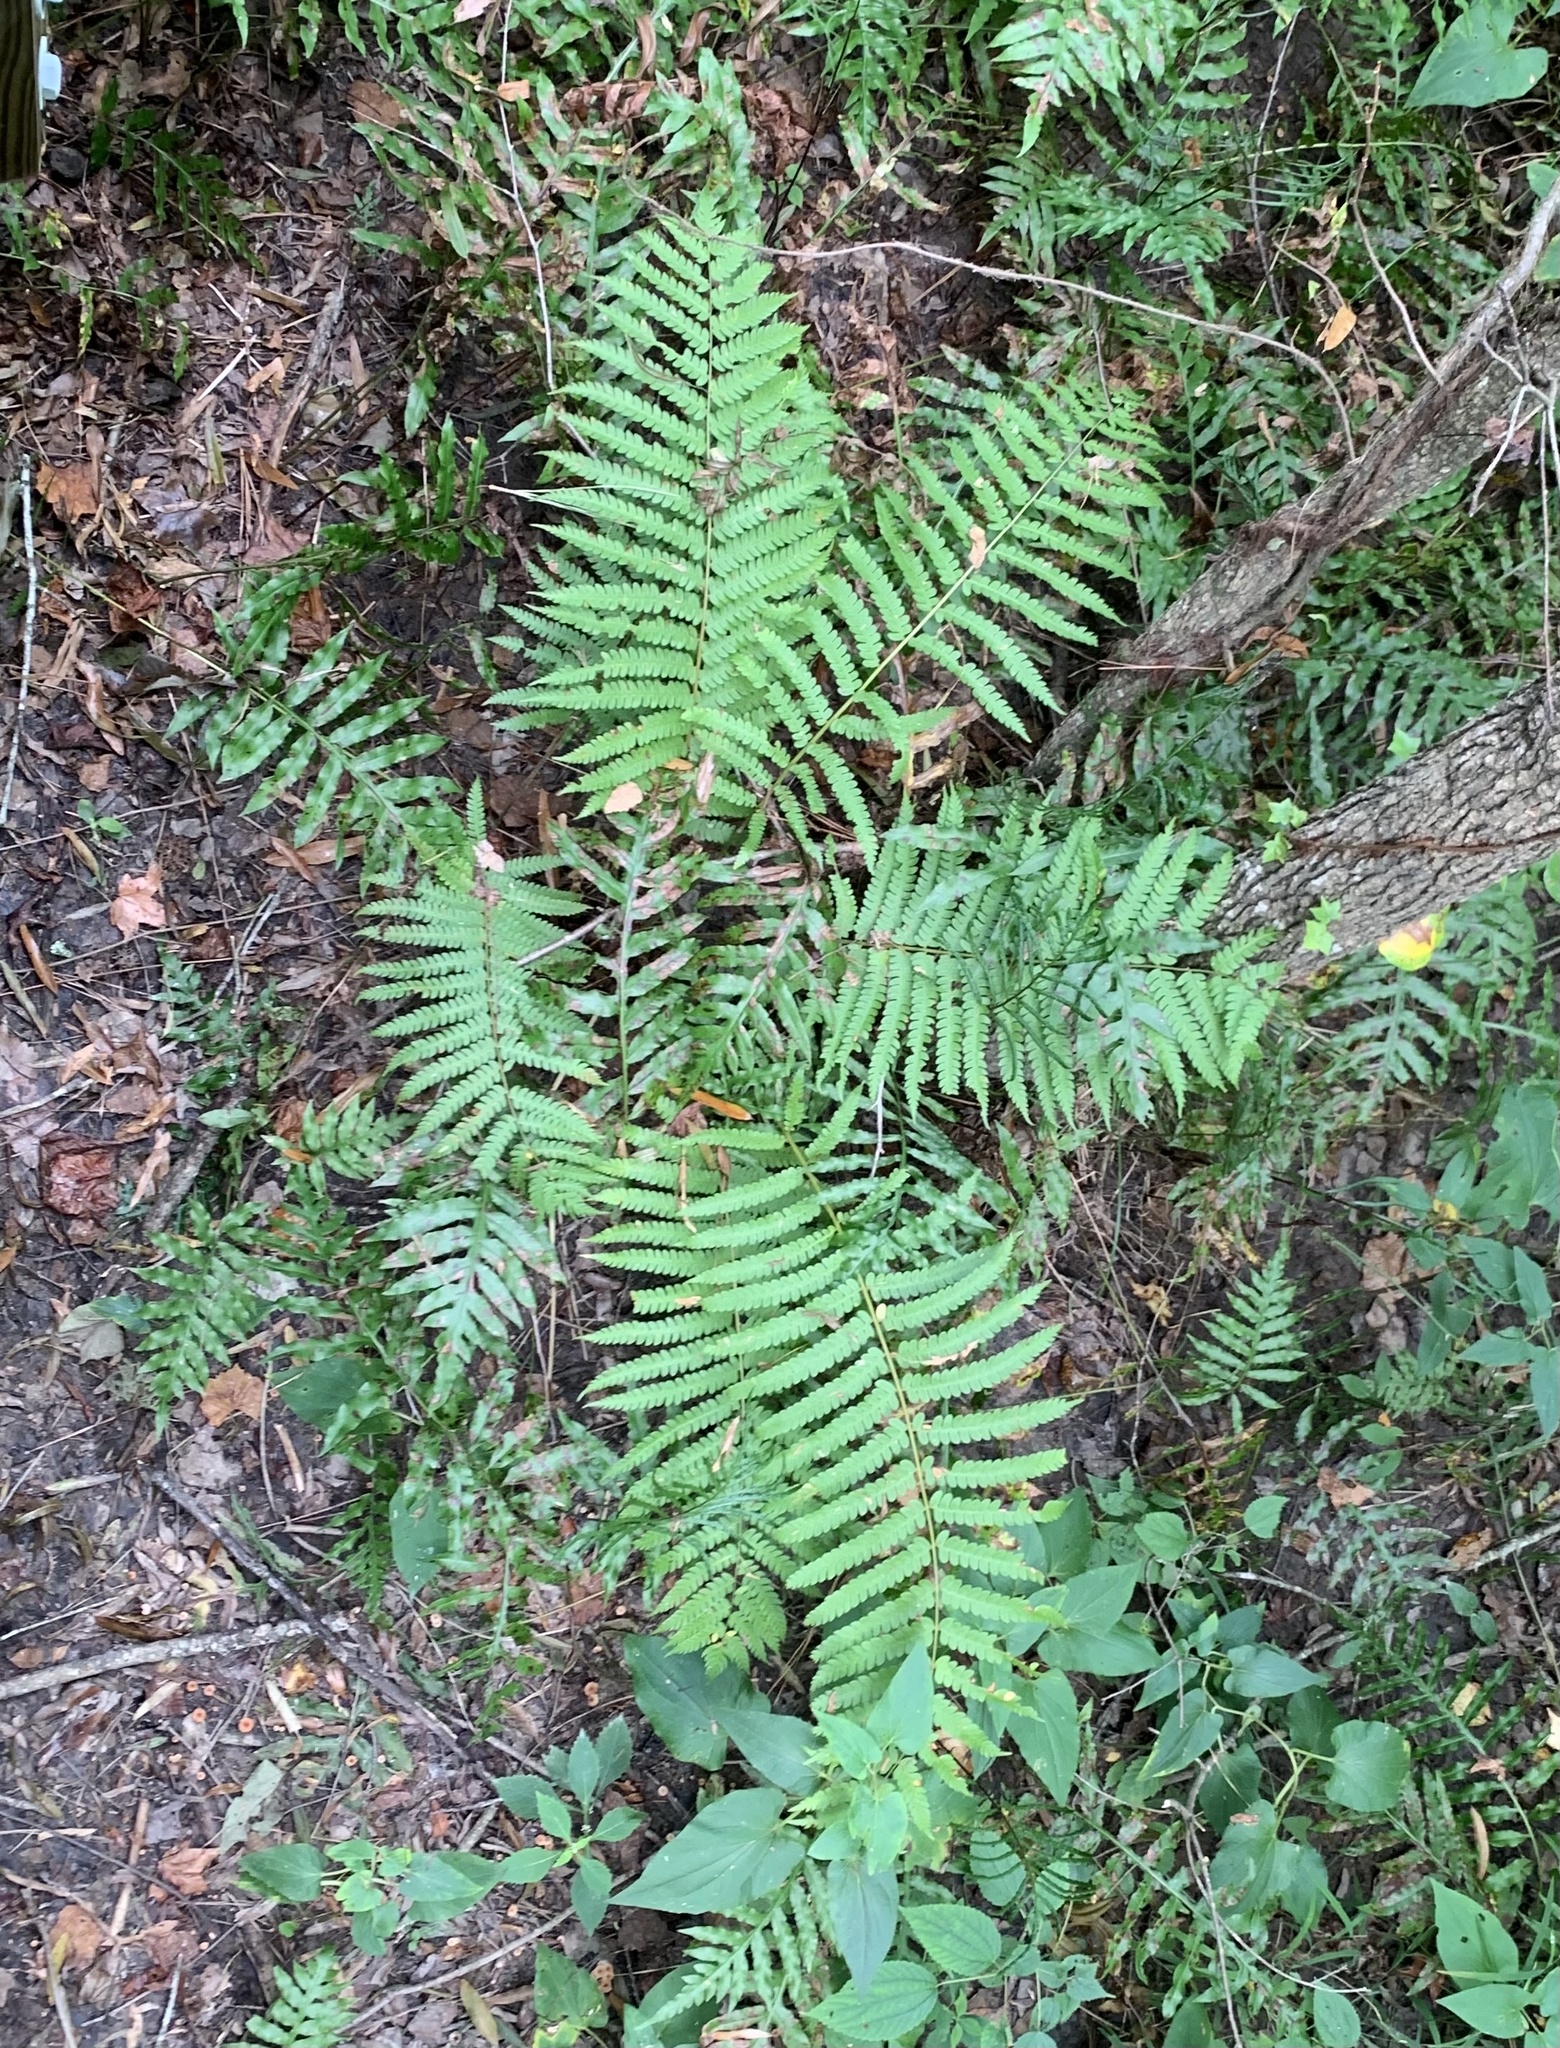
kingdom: Plantae
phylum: Tracheophyta
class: Polypodiopsida
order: Osmundales
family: Osmundaceae
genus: Osmundastrum
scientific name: Osmundastrum cinnamomeum
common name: Cinnamon fern
